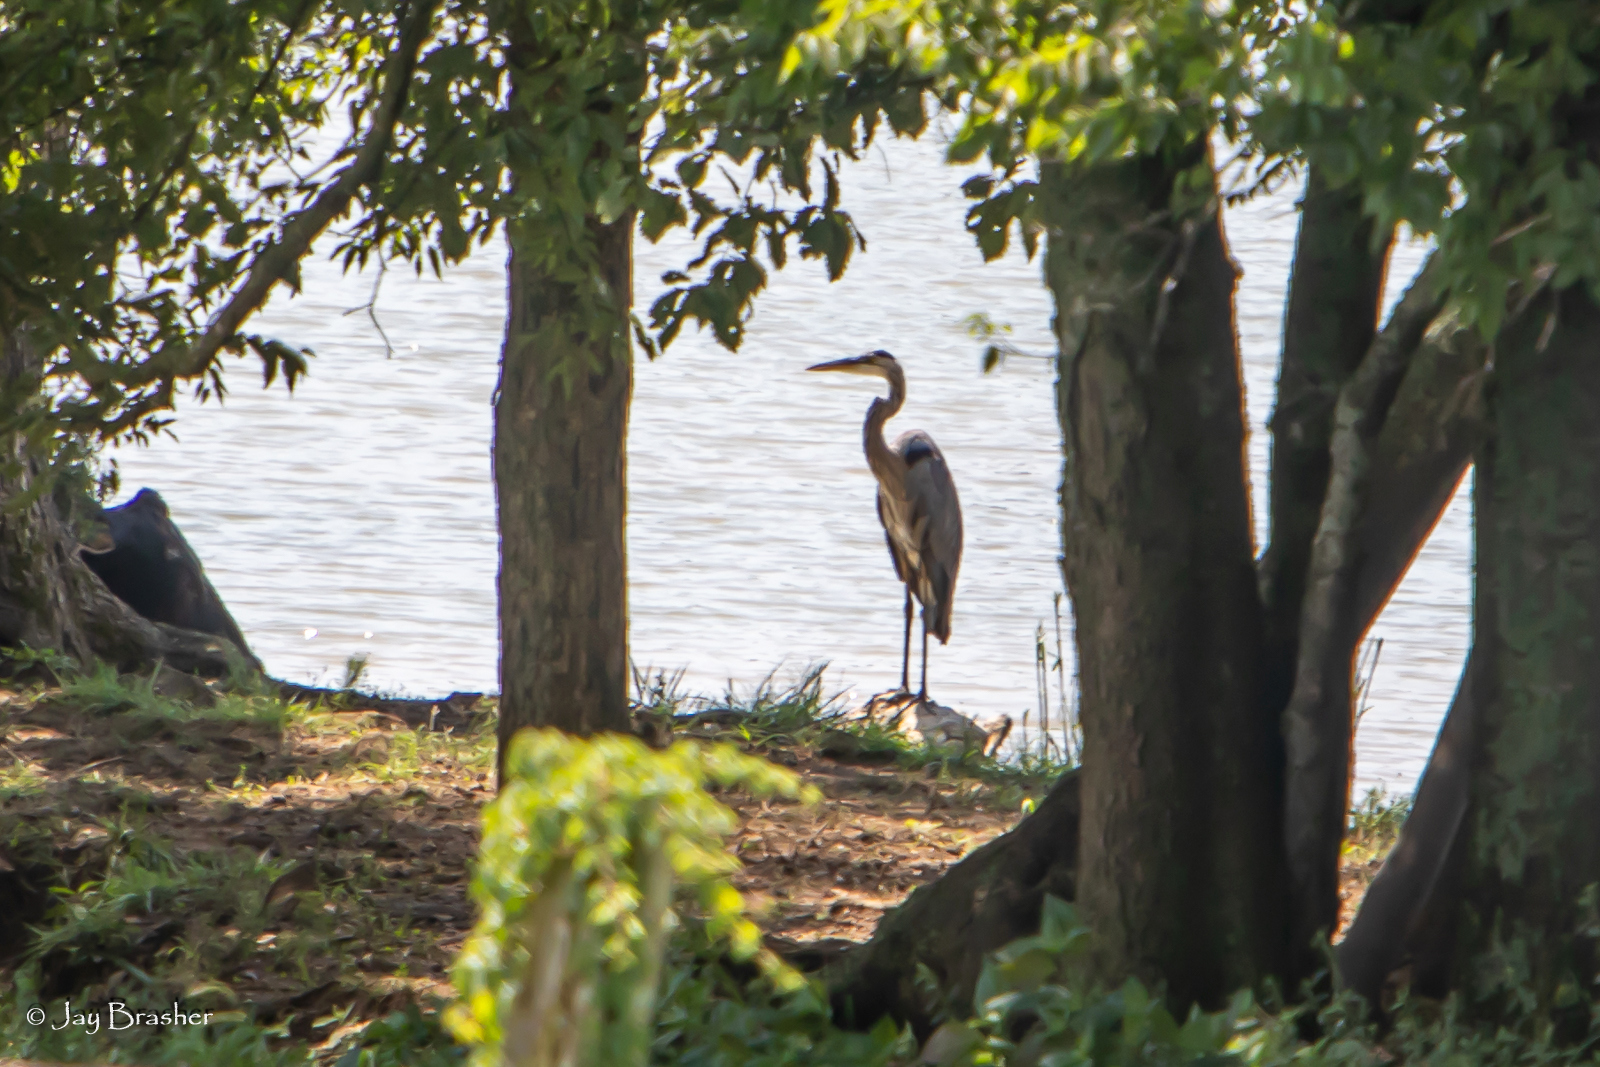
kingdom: Animalia
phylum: Chordata
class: Aves
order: Pelecaniformes
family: Ardeidae
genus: Ardea
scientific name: Ardea herodias
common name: Great blue heron
